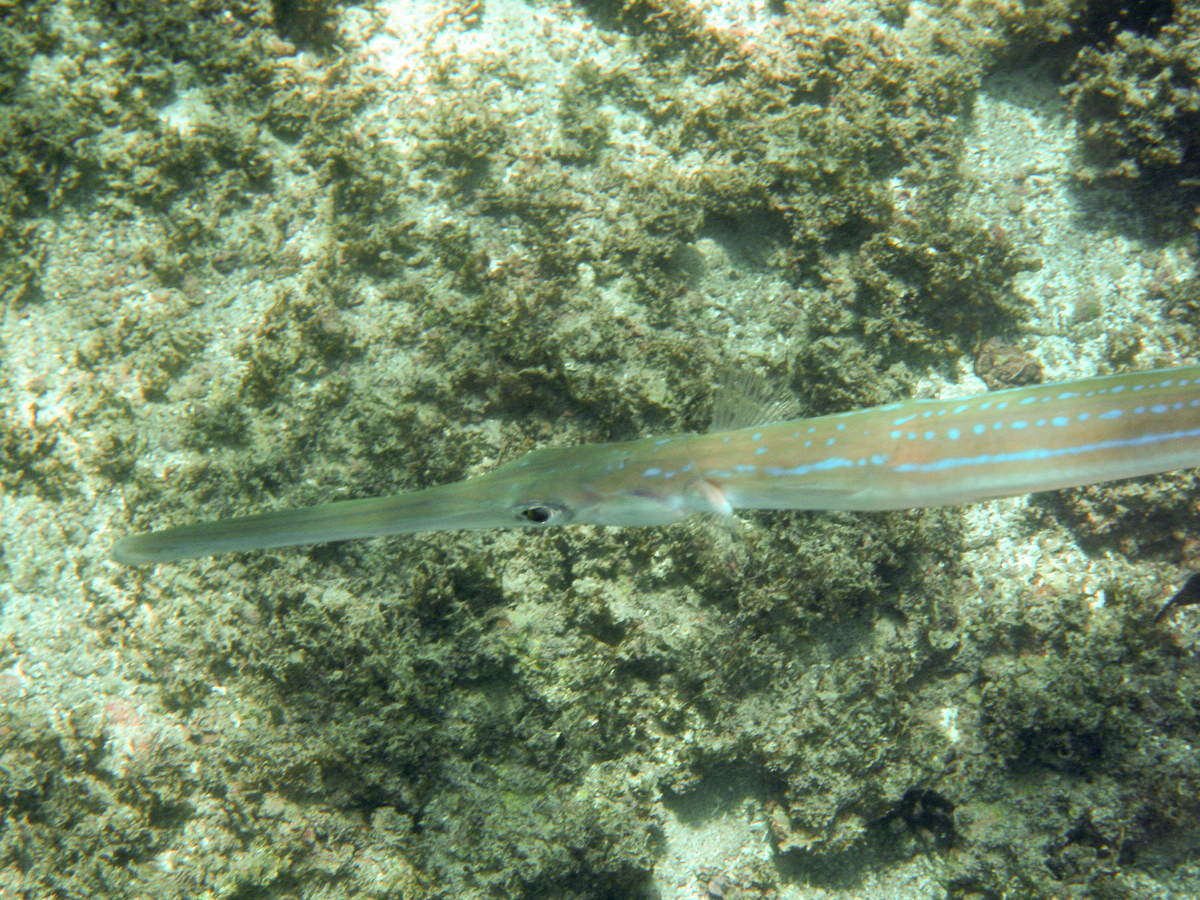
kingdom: Animalia
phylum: Chordata
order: Syngnathiformes
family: Fistulariidae
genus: Fistularia
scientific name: Fistularia commersonii
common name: Bluespotted cornetfish
